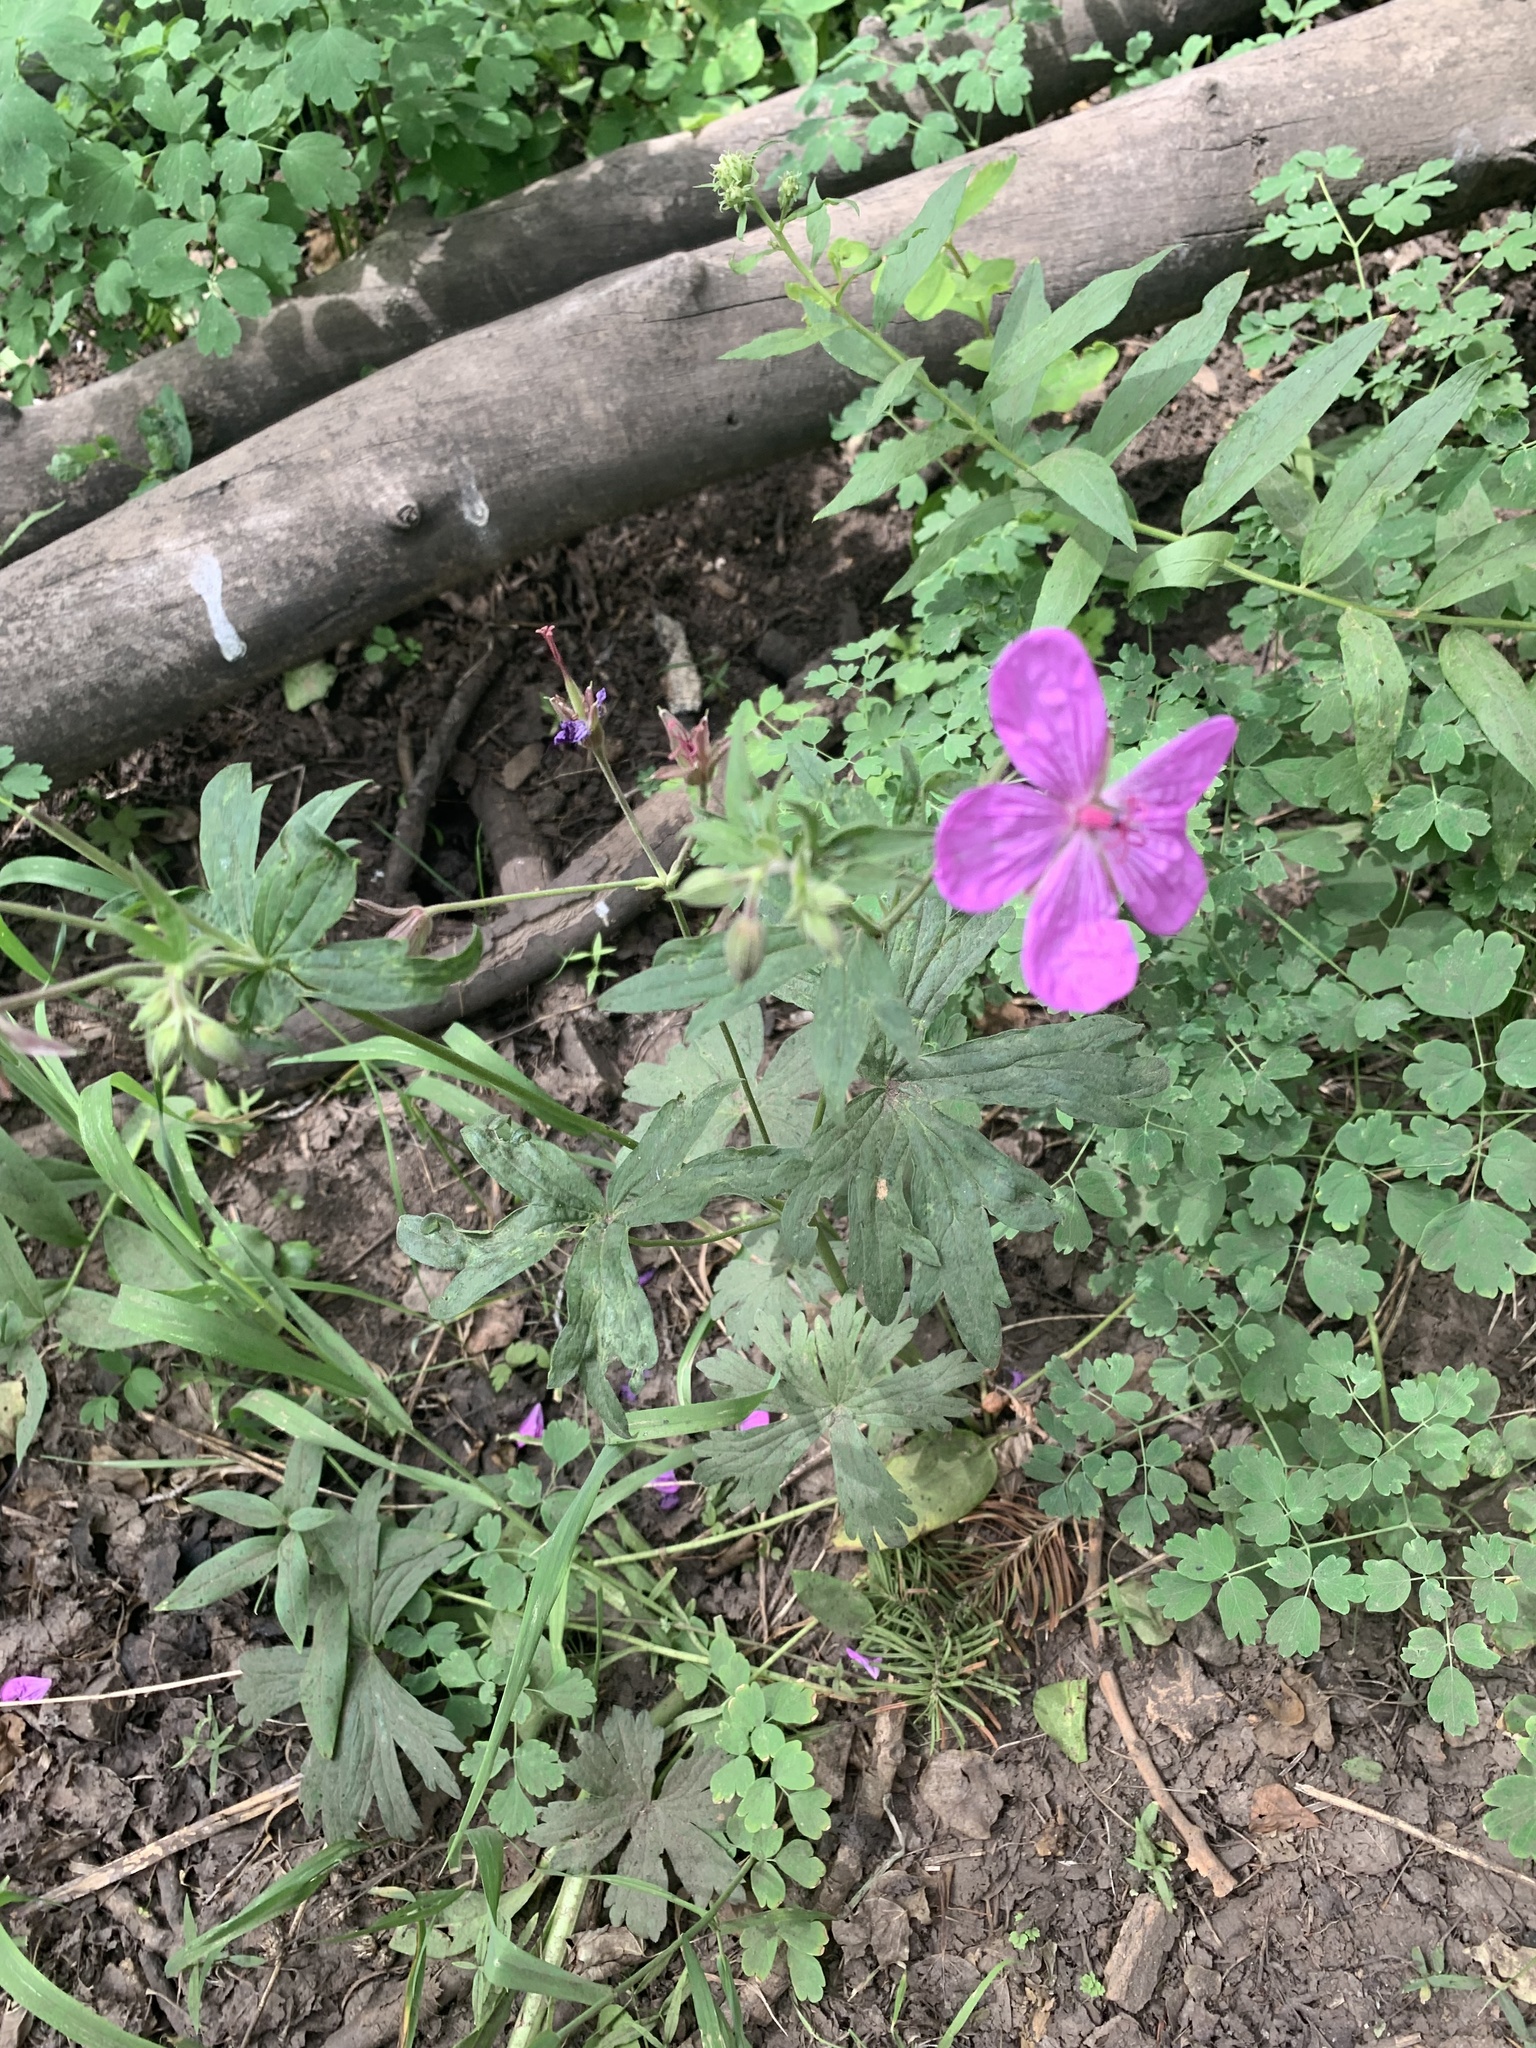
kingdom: Plantae
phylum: Tracheophyta
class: Magnoliopsida
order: Geraniales
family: Geraniaceae
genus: Geranium
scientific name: Geranium viscosissimum
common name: Purple geranium
